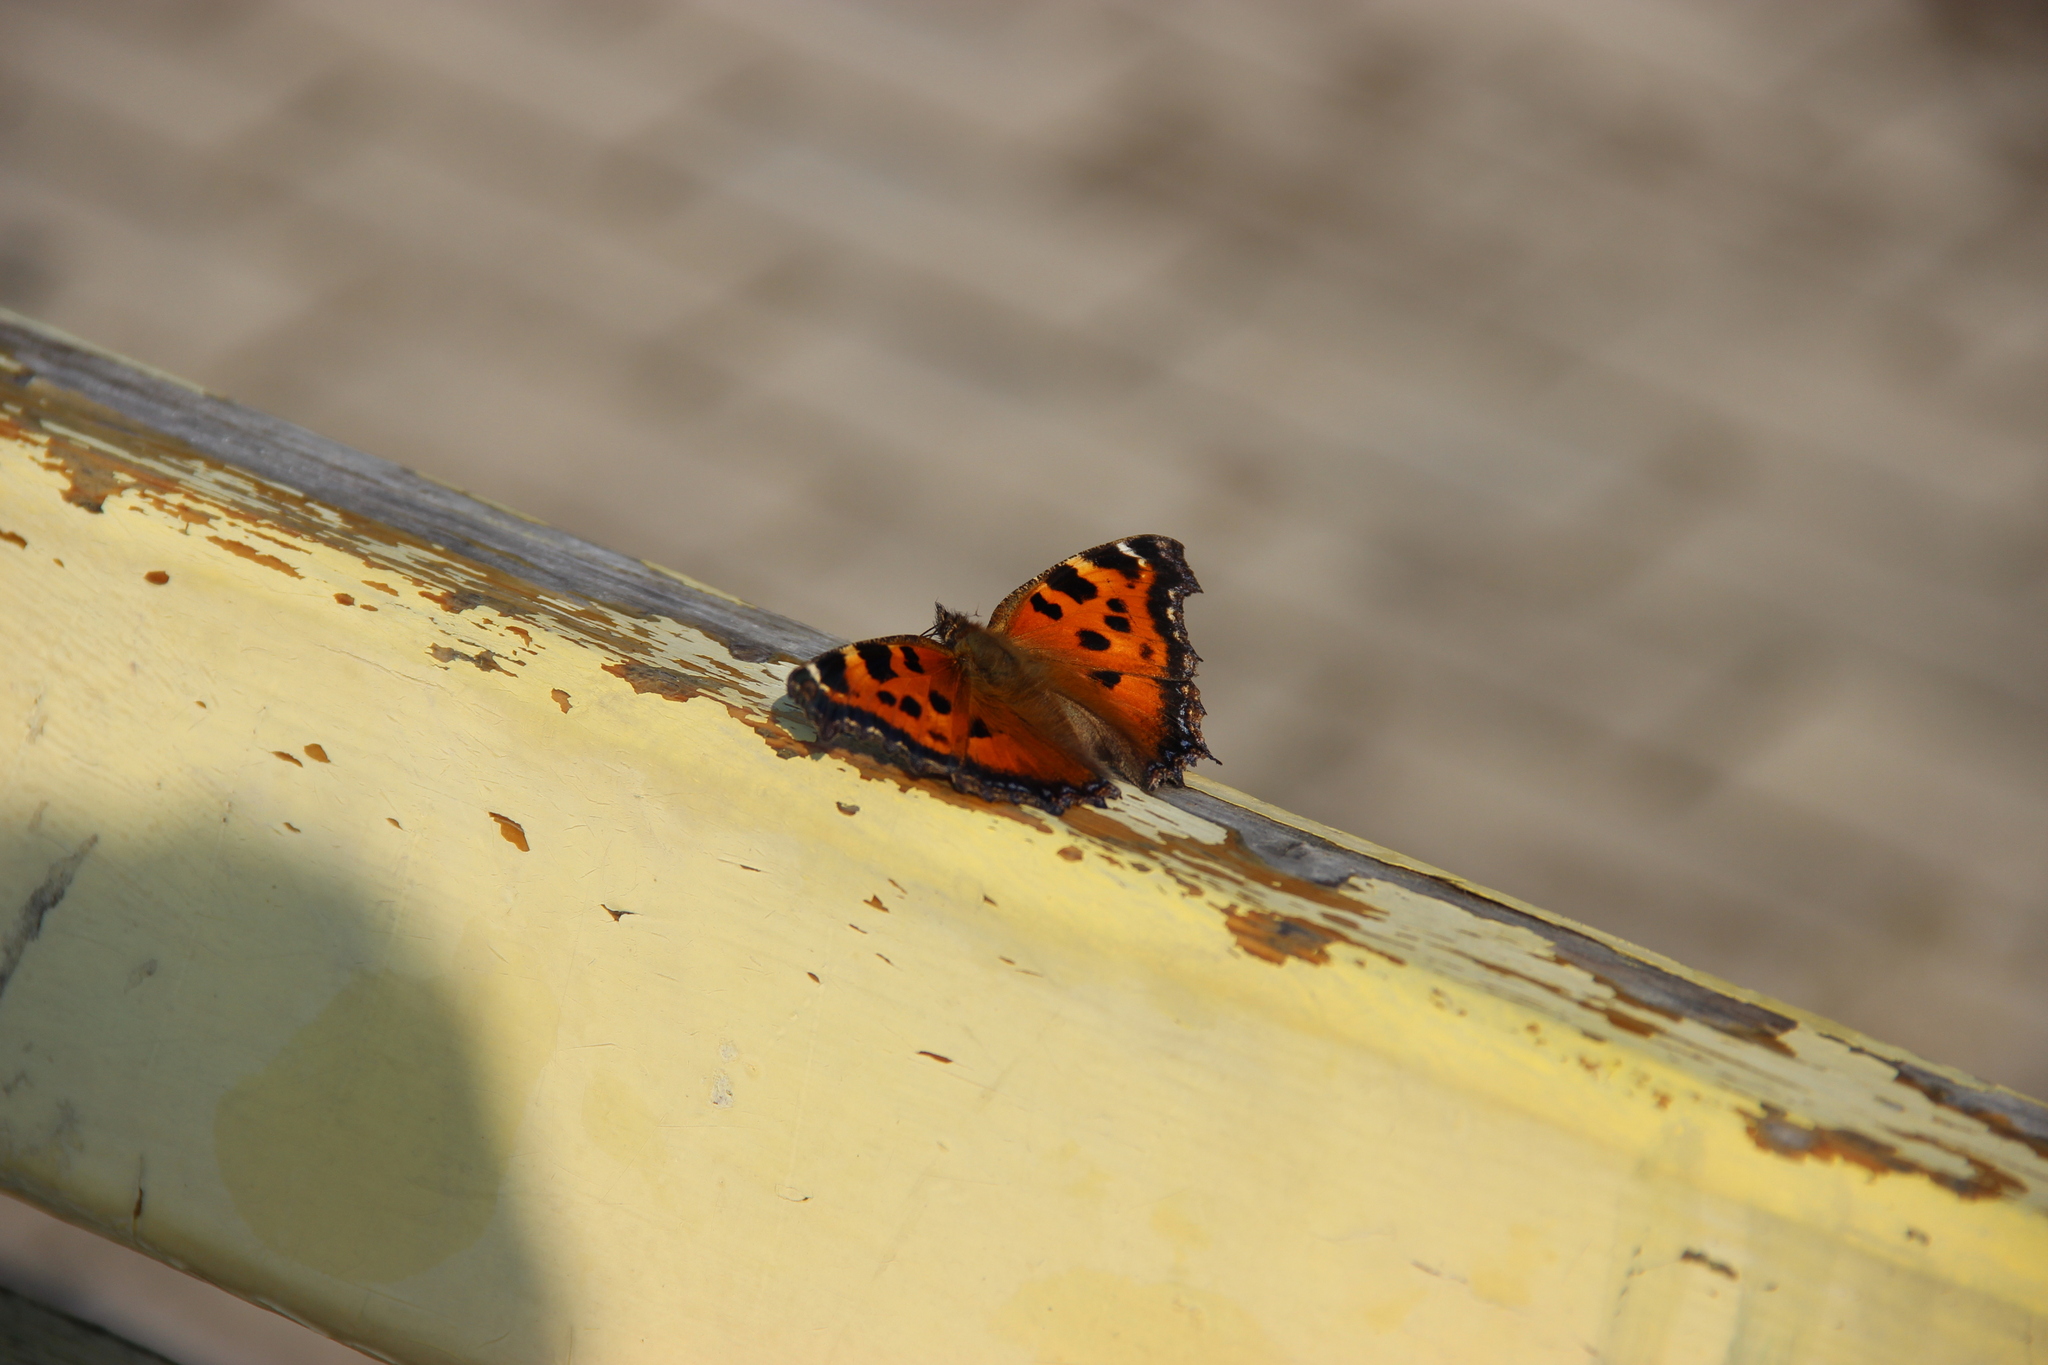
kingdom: Animalia
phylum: Arthropoda
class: Insecta
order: Lepidoptera
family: Nymphalidae
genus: Nymphalis
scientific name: Nymphalis xanthomelas
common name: Scarce tortoiseshell
